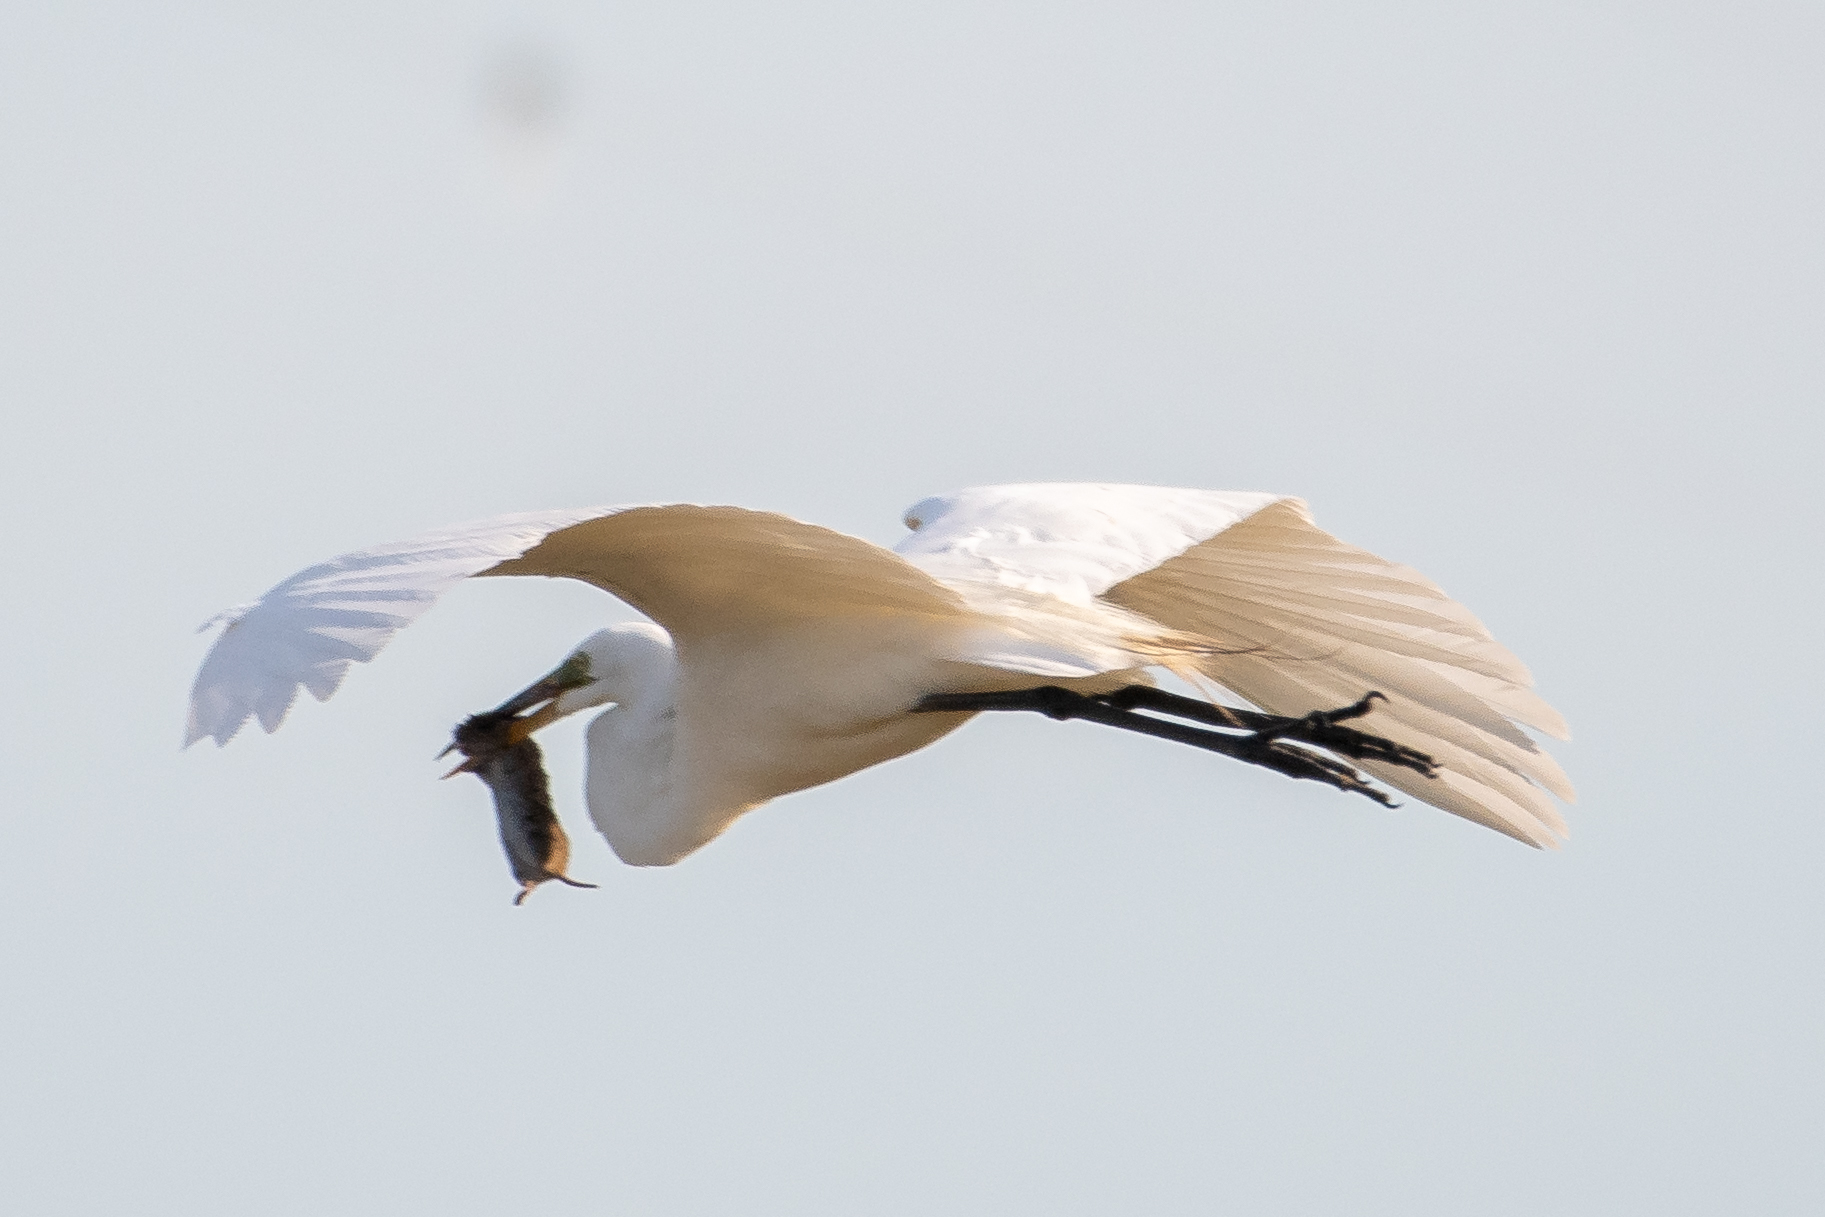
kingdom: Animalia
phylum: Chordata
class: Aves
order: Pelecaniformes
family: Ardeidae
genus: Ardea
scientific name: Ardea alba
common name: Great egret
